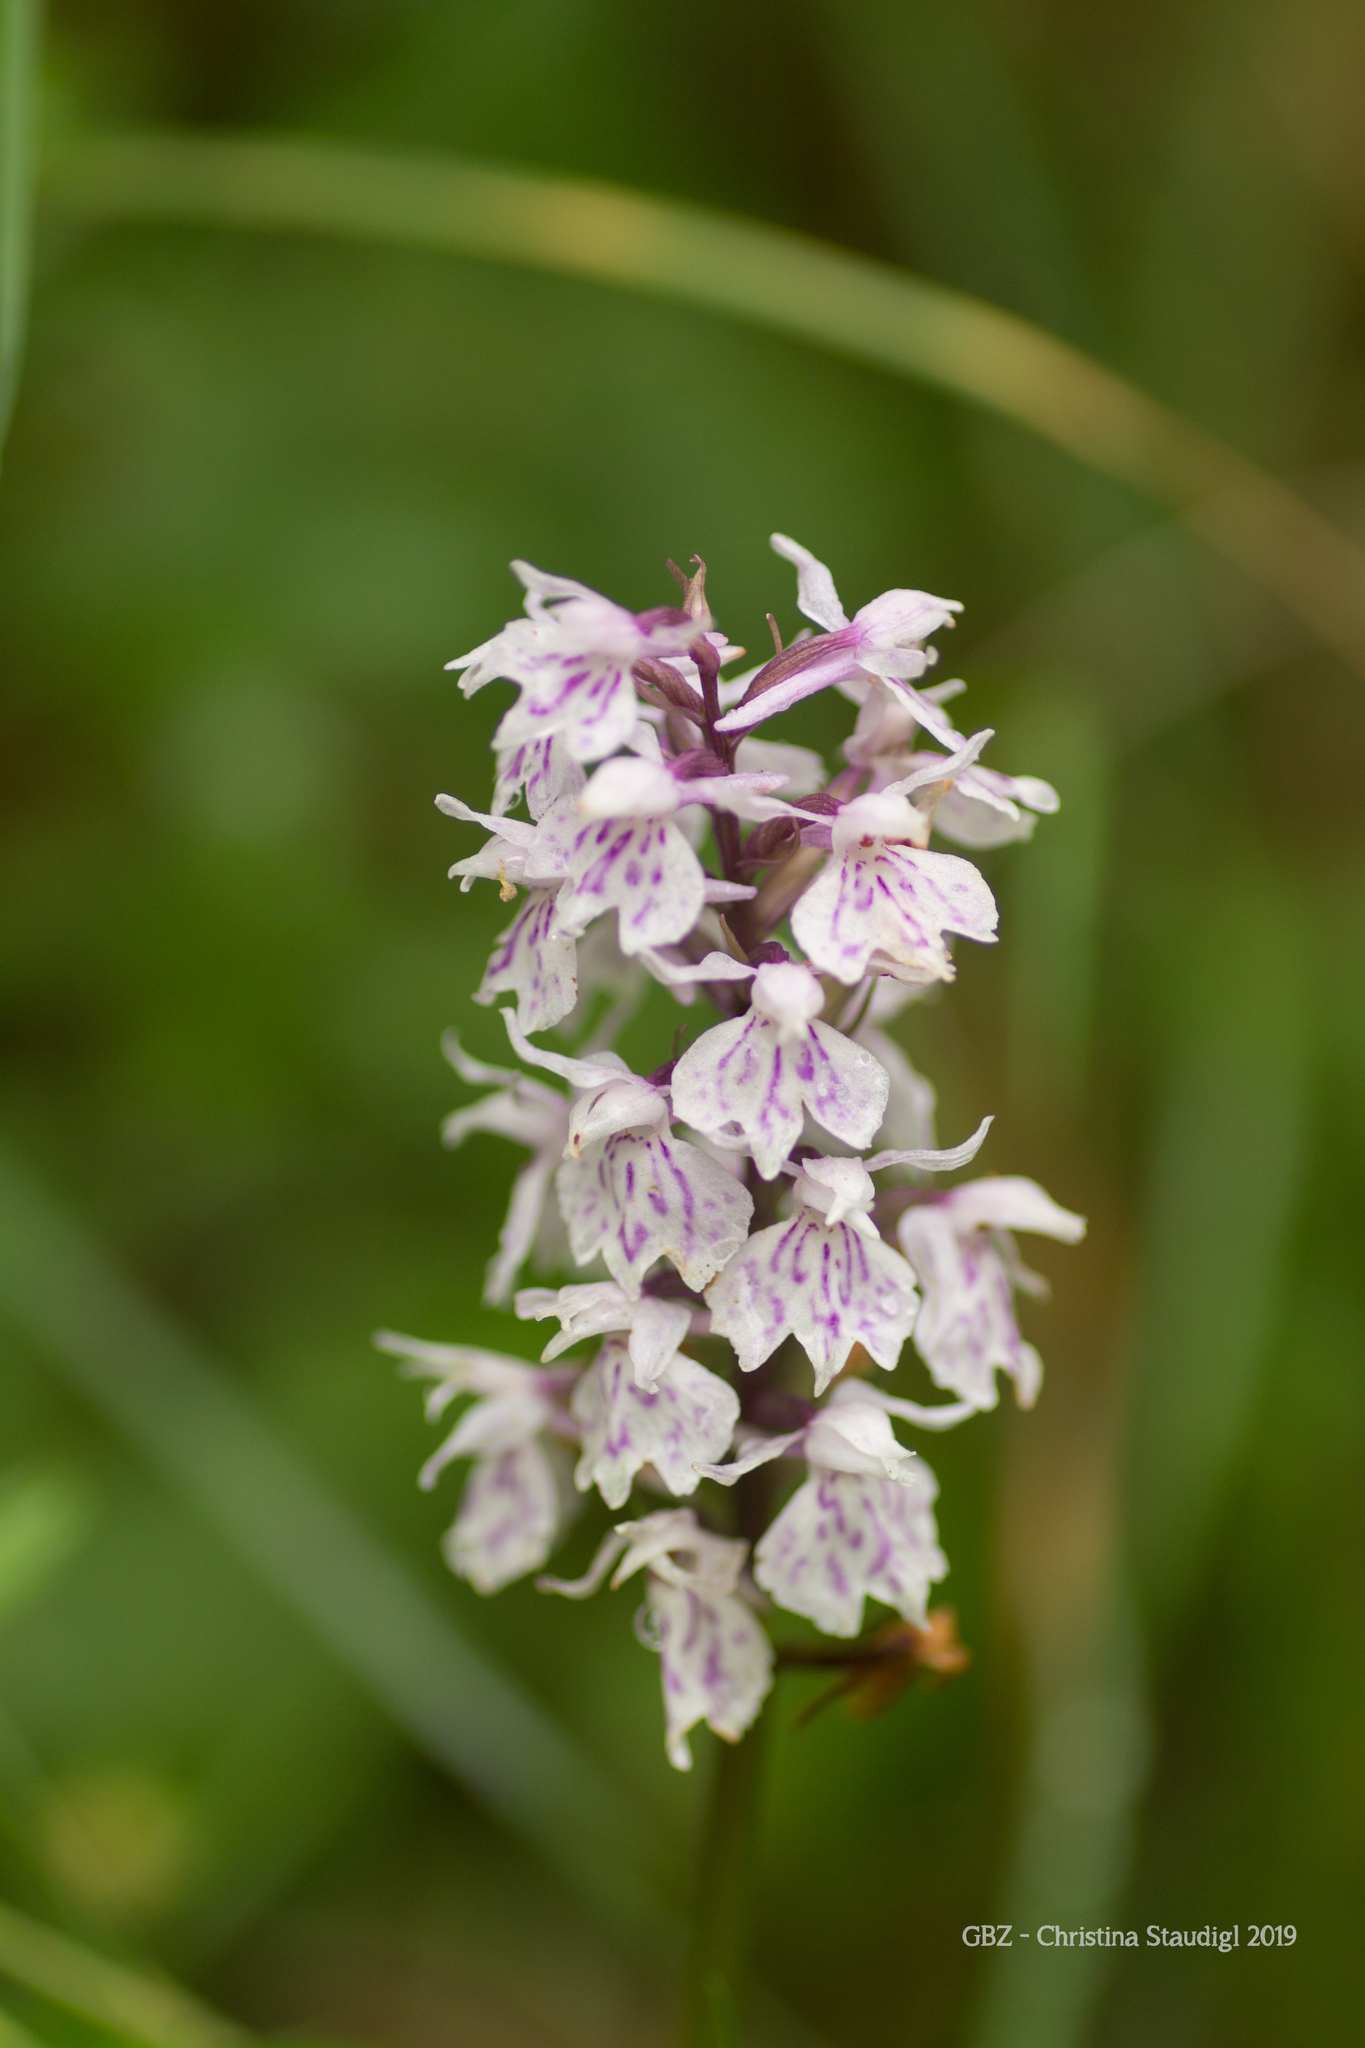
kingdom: Plantae
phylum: Tracheophyta
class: Liliopsida
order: Asparagales
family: Orchidaceae
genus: Dactylorhiza
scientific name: Dactylorhiza maculata
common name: Heath spotted-orchid
